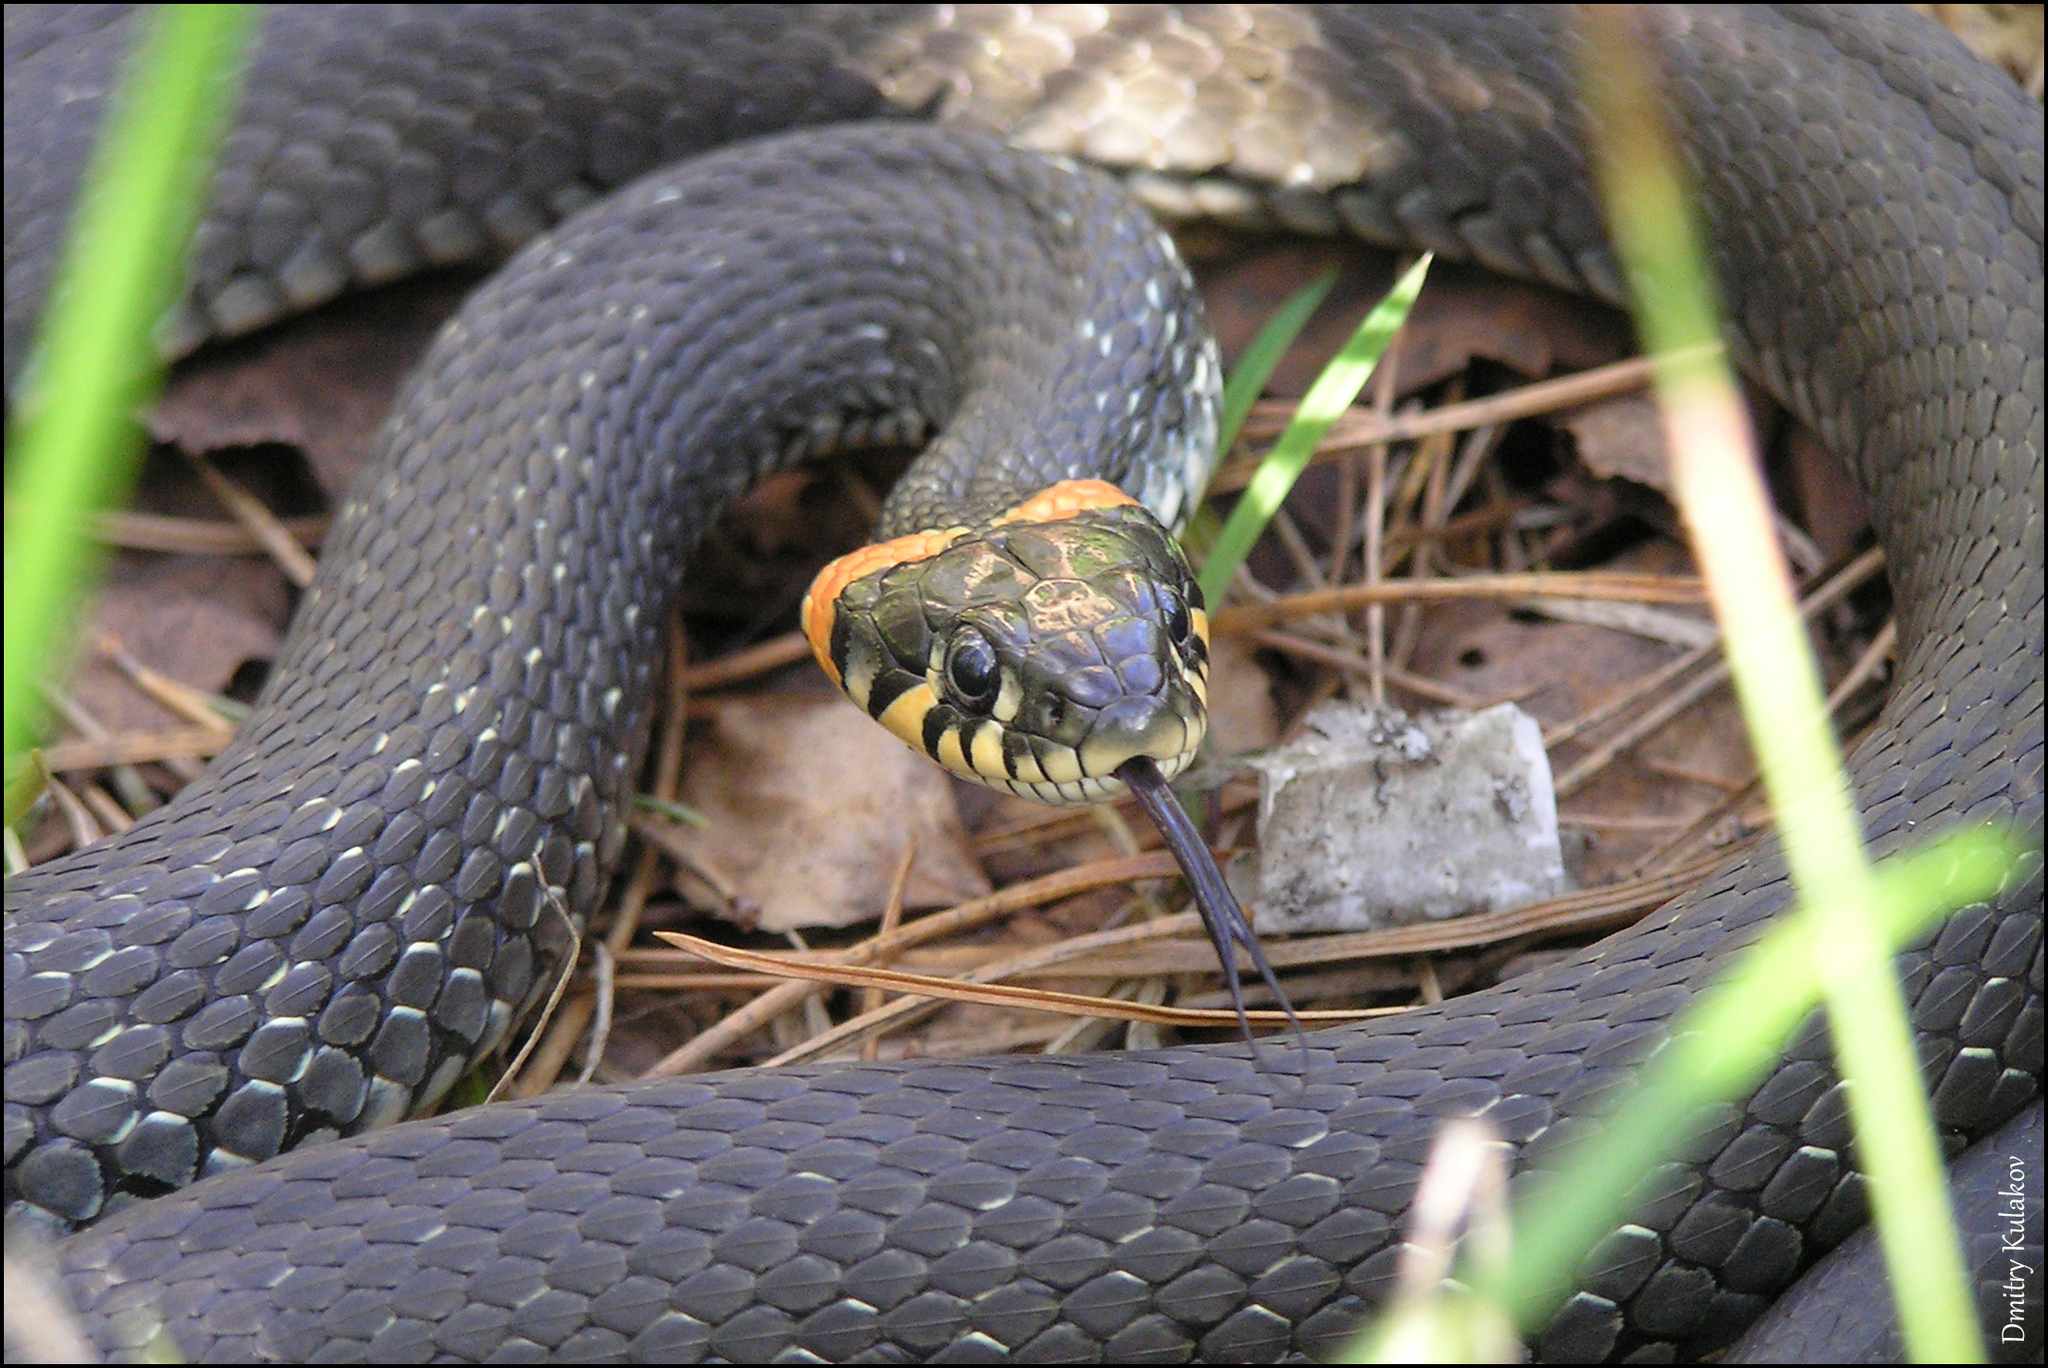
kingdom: Animalia
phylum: Chordata
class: Squamata
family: Colubridae
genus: Natrix
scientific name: Natrix natrix
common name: Grass snake
